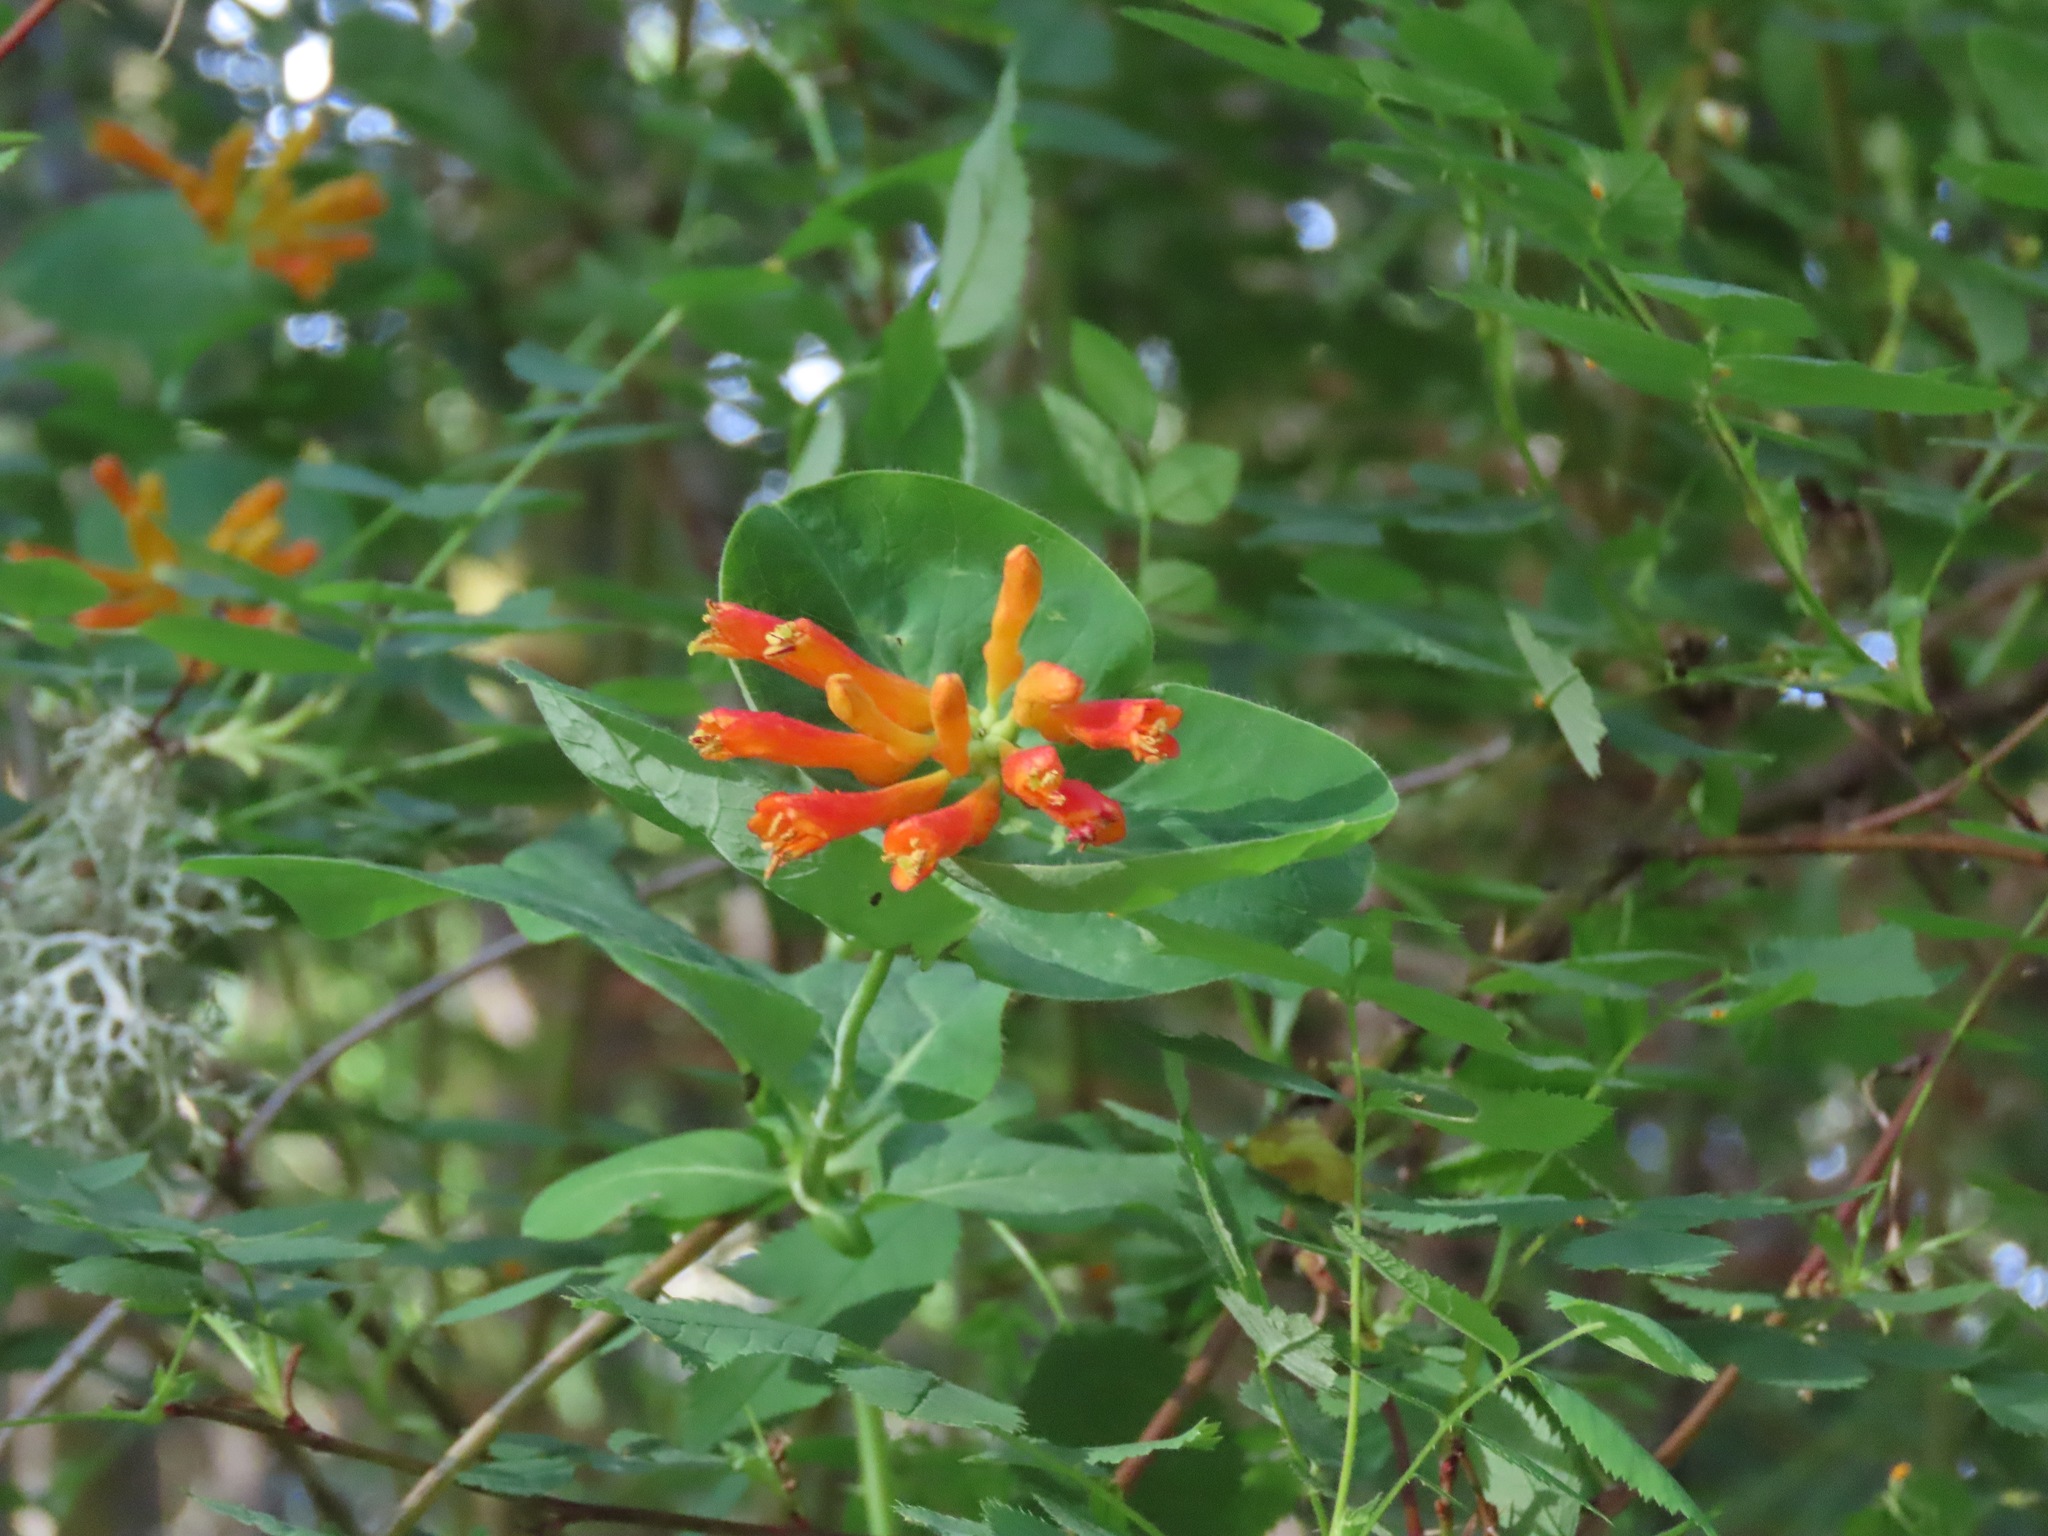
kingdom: Plantae
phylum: Tracheophyta
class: Magnoliopsida
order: Dipsacales
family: Caprifoliaceae
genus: Lonicera
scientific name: Lonicera ciliosa
